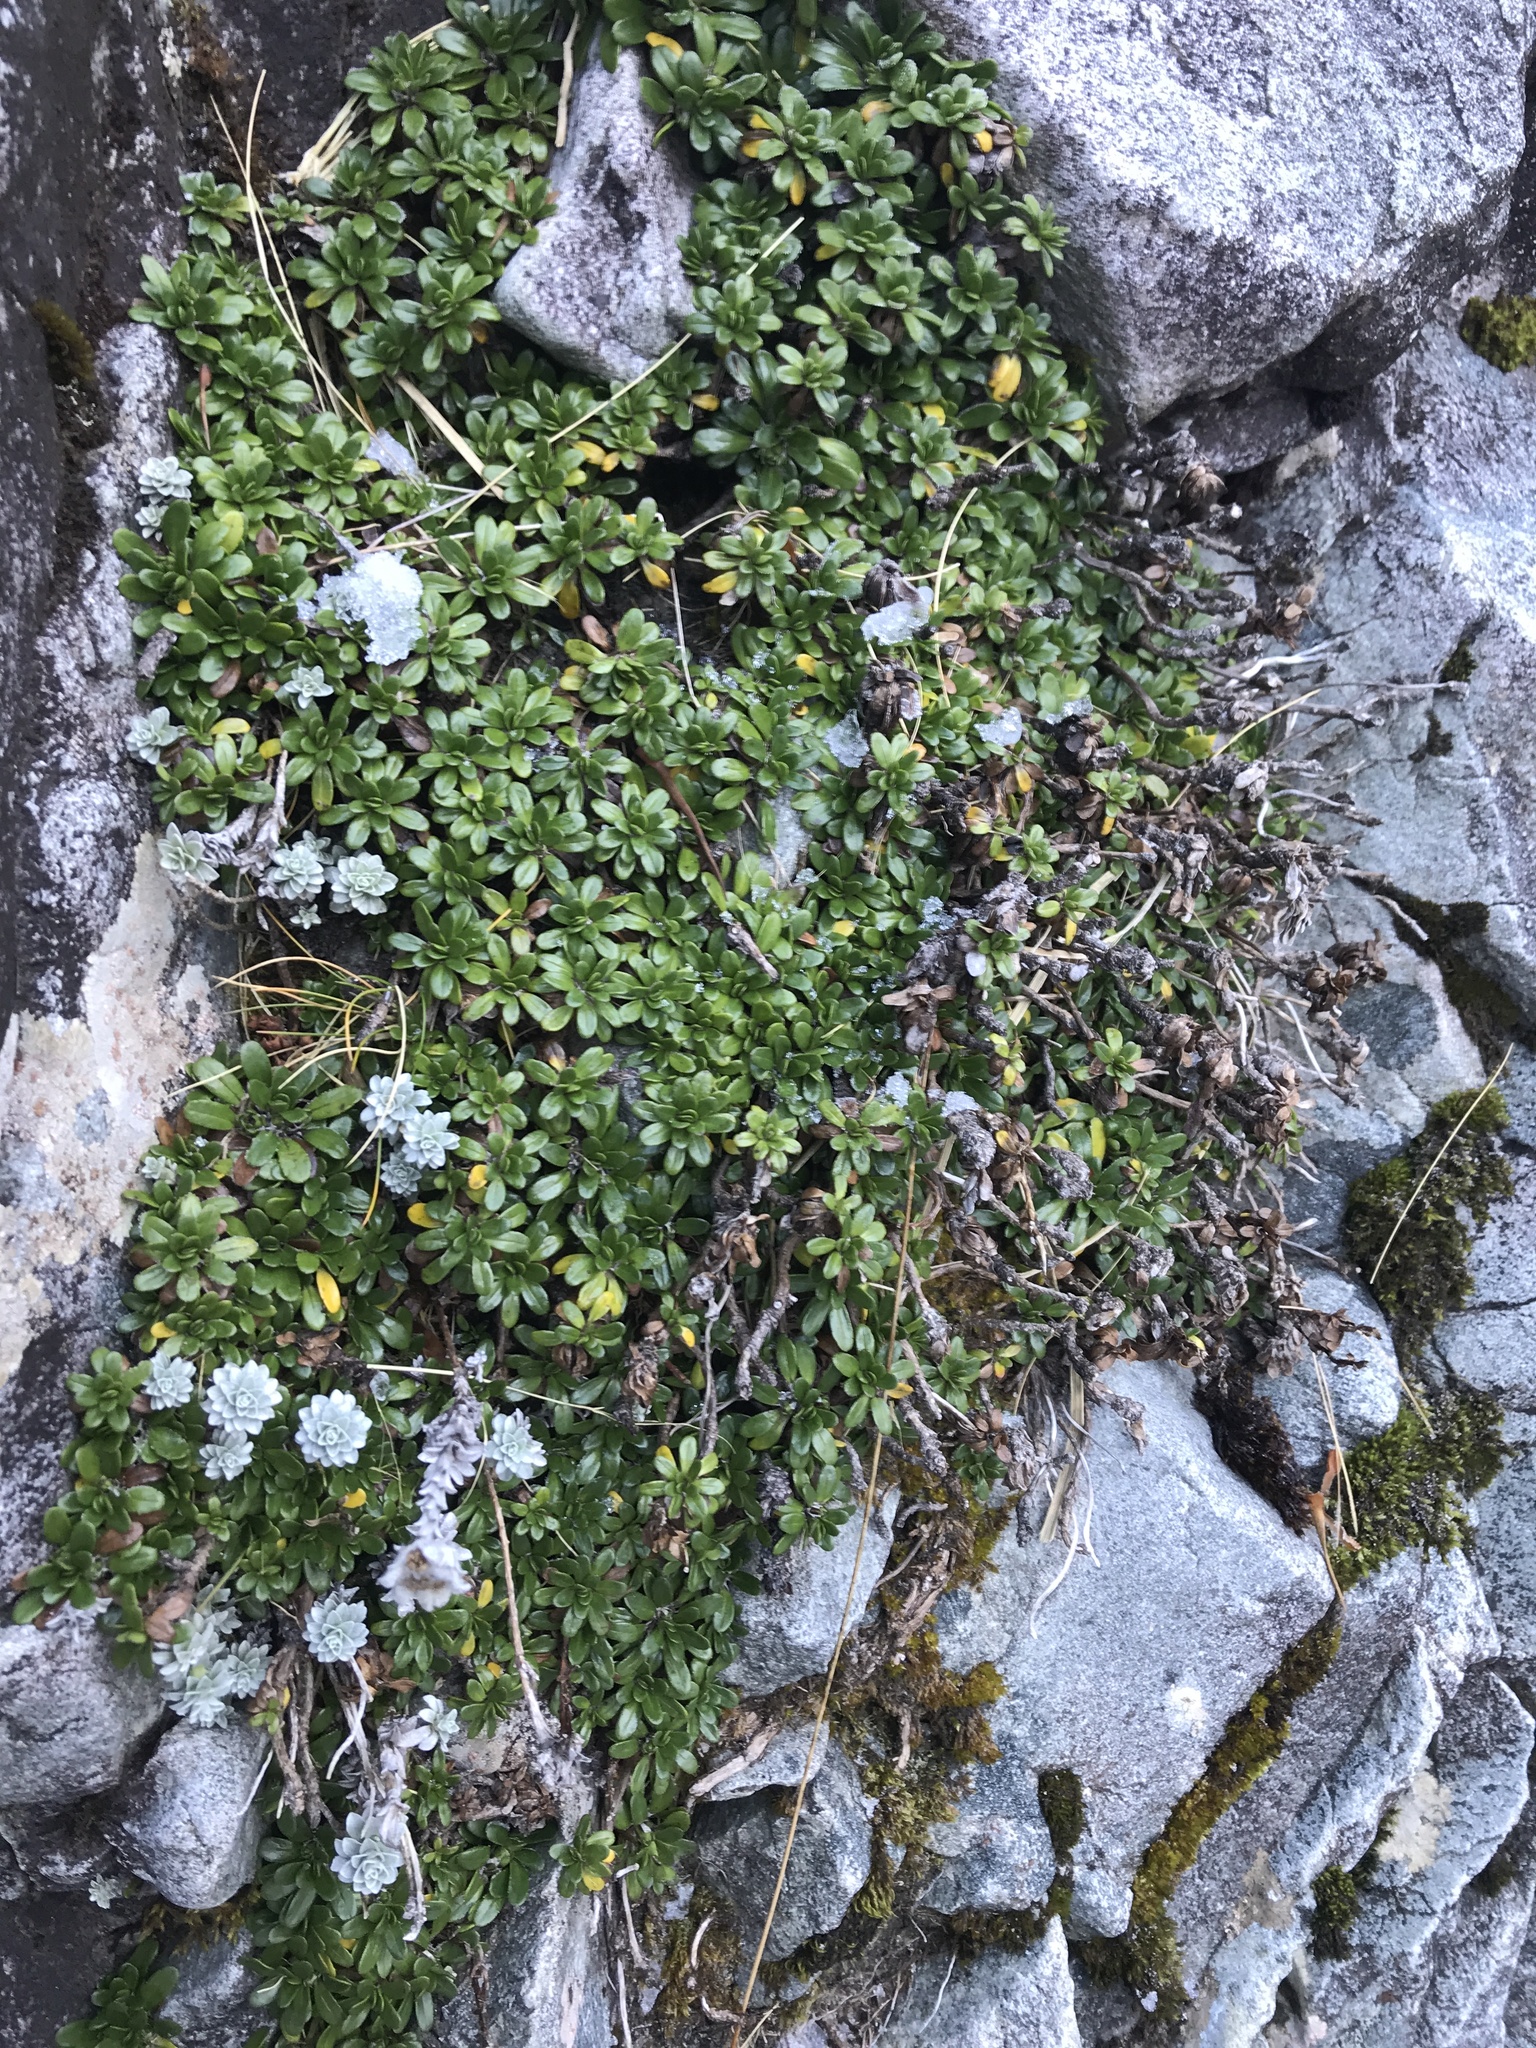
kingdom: Plantae
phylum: Tracheophyta
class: Magnoliopsida
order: Asterales
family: Asteraceae
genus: Celmisia
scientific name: Celmisia bellidioides
